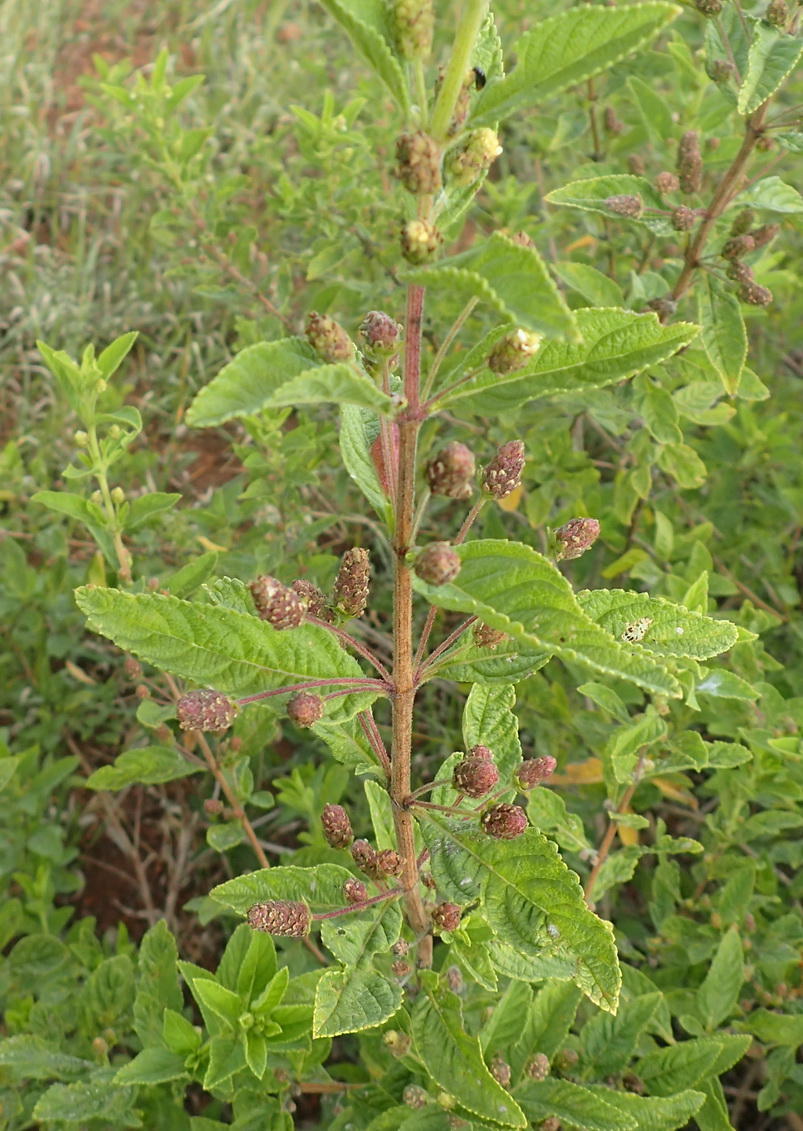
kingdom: Plantae
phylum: Tracheophyta
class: Magnoliopsida
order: Lamiales
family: Verbenaceae
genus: Lippia
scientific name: Lippia javanica
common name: Lemonbush
